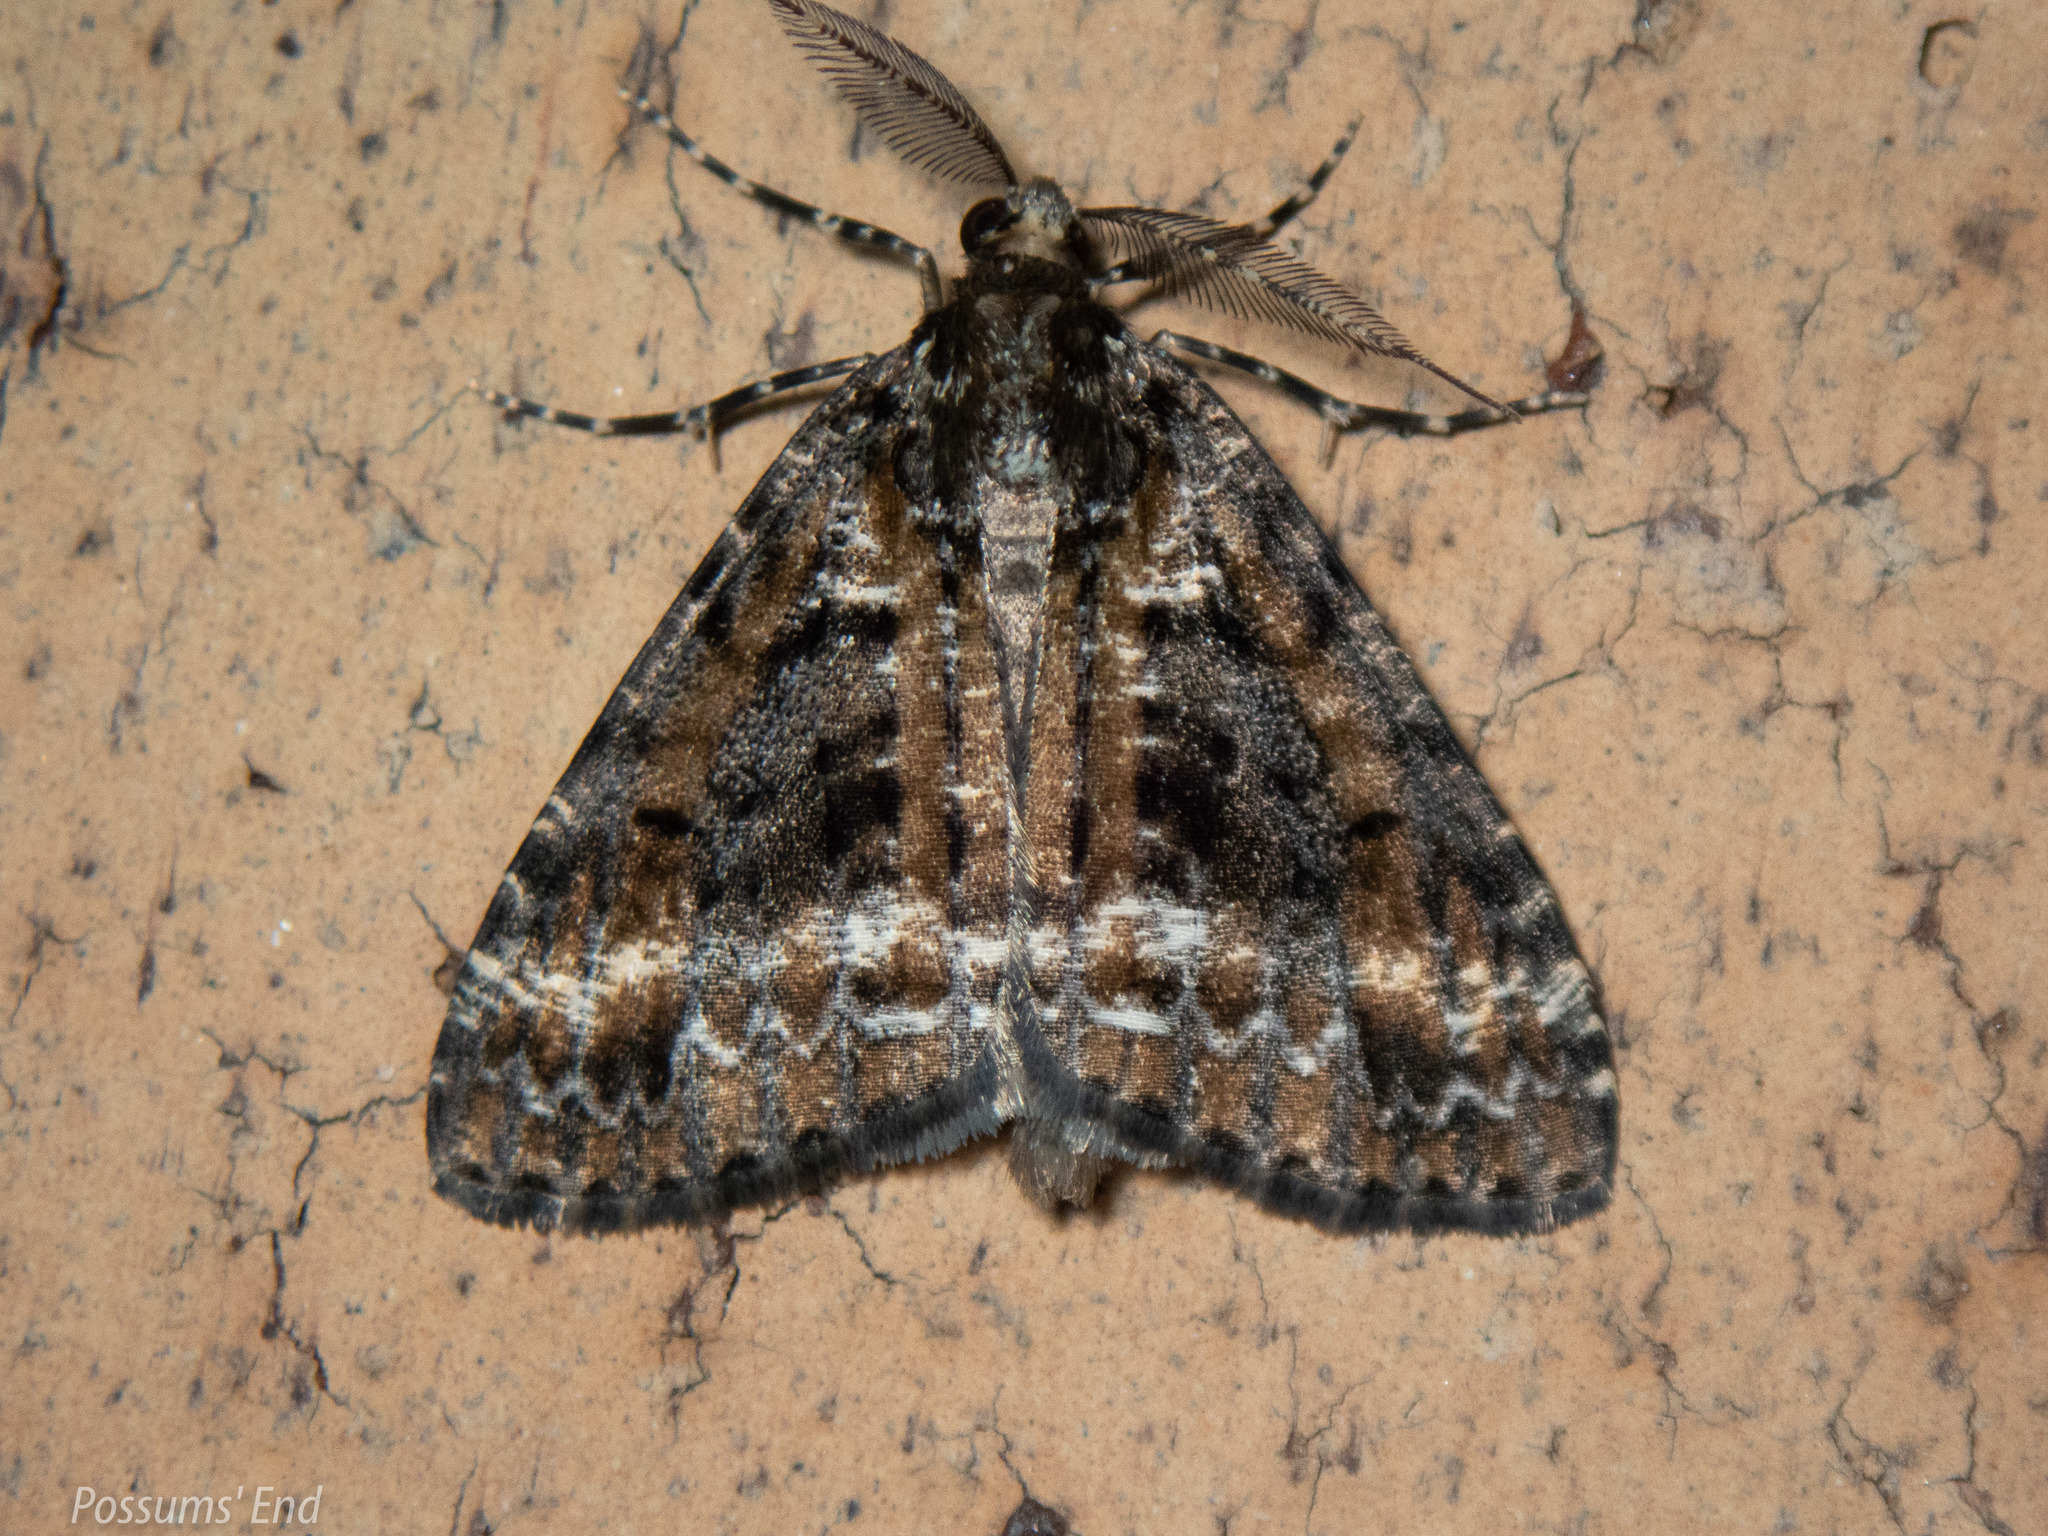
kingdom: Animalia
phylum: Arthropoda
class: Insecta
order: Lepidoptera
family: Geometridae
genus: Pseudocoremia
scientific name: Pseudocoremia leucelaea
